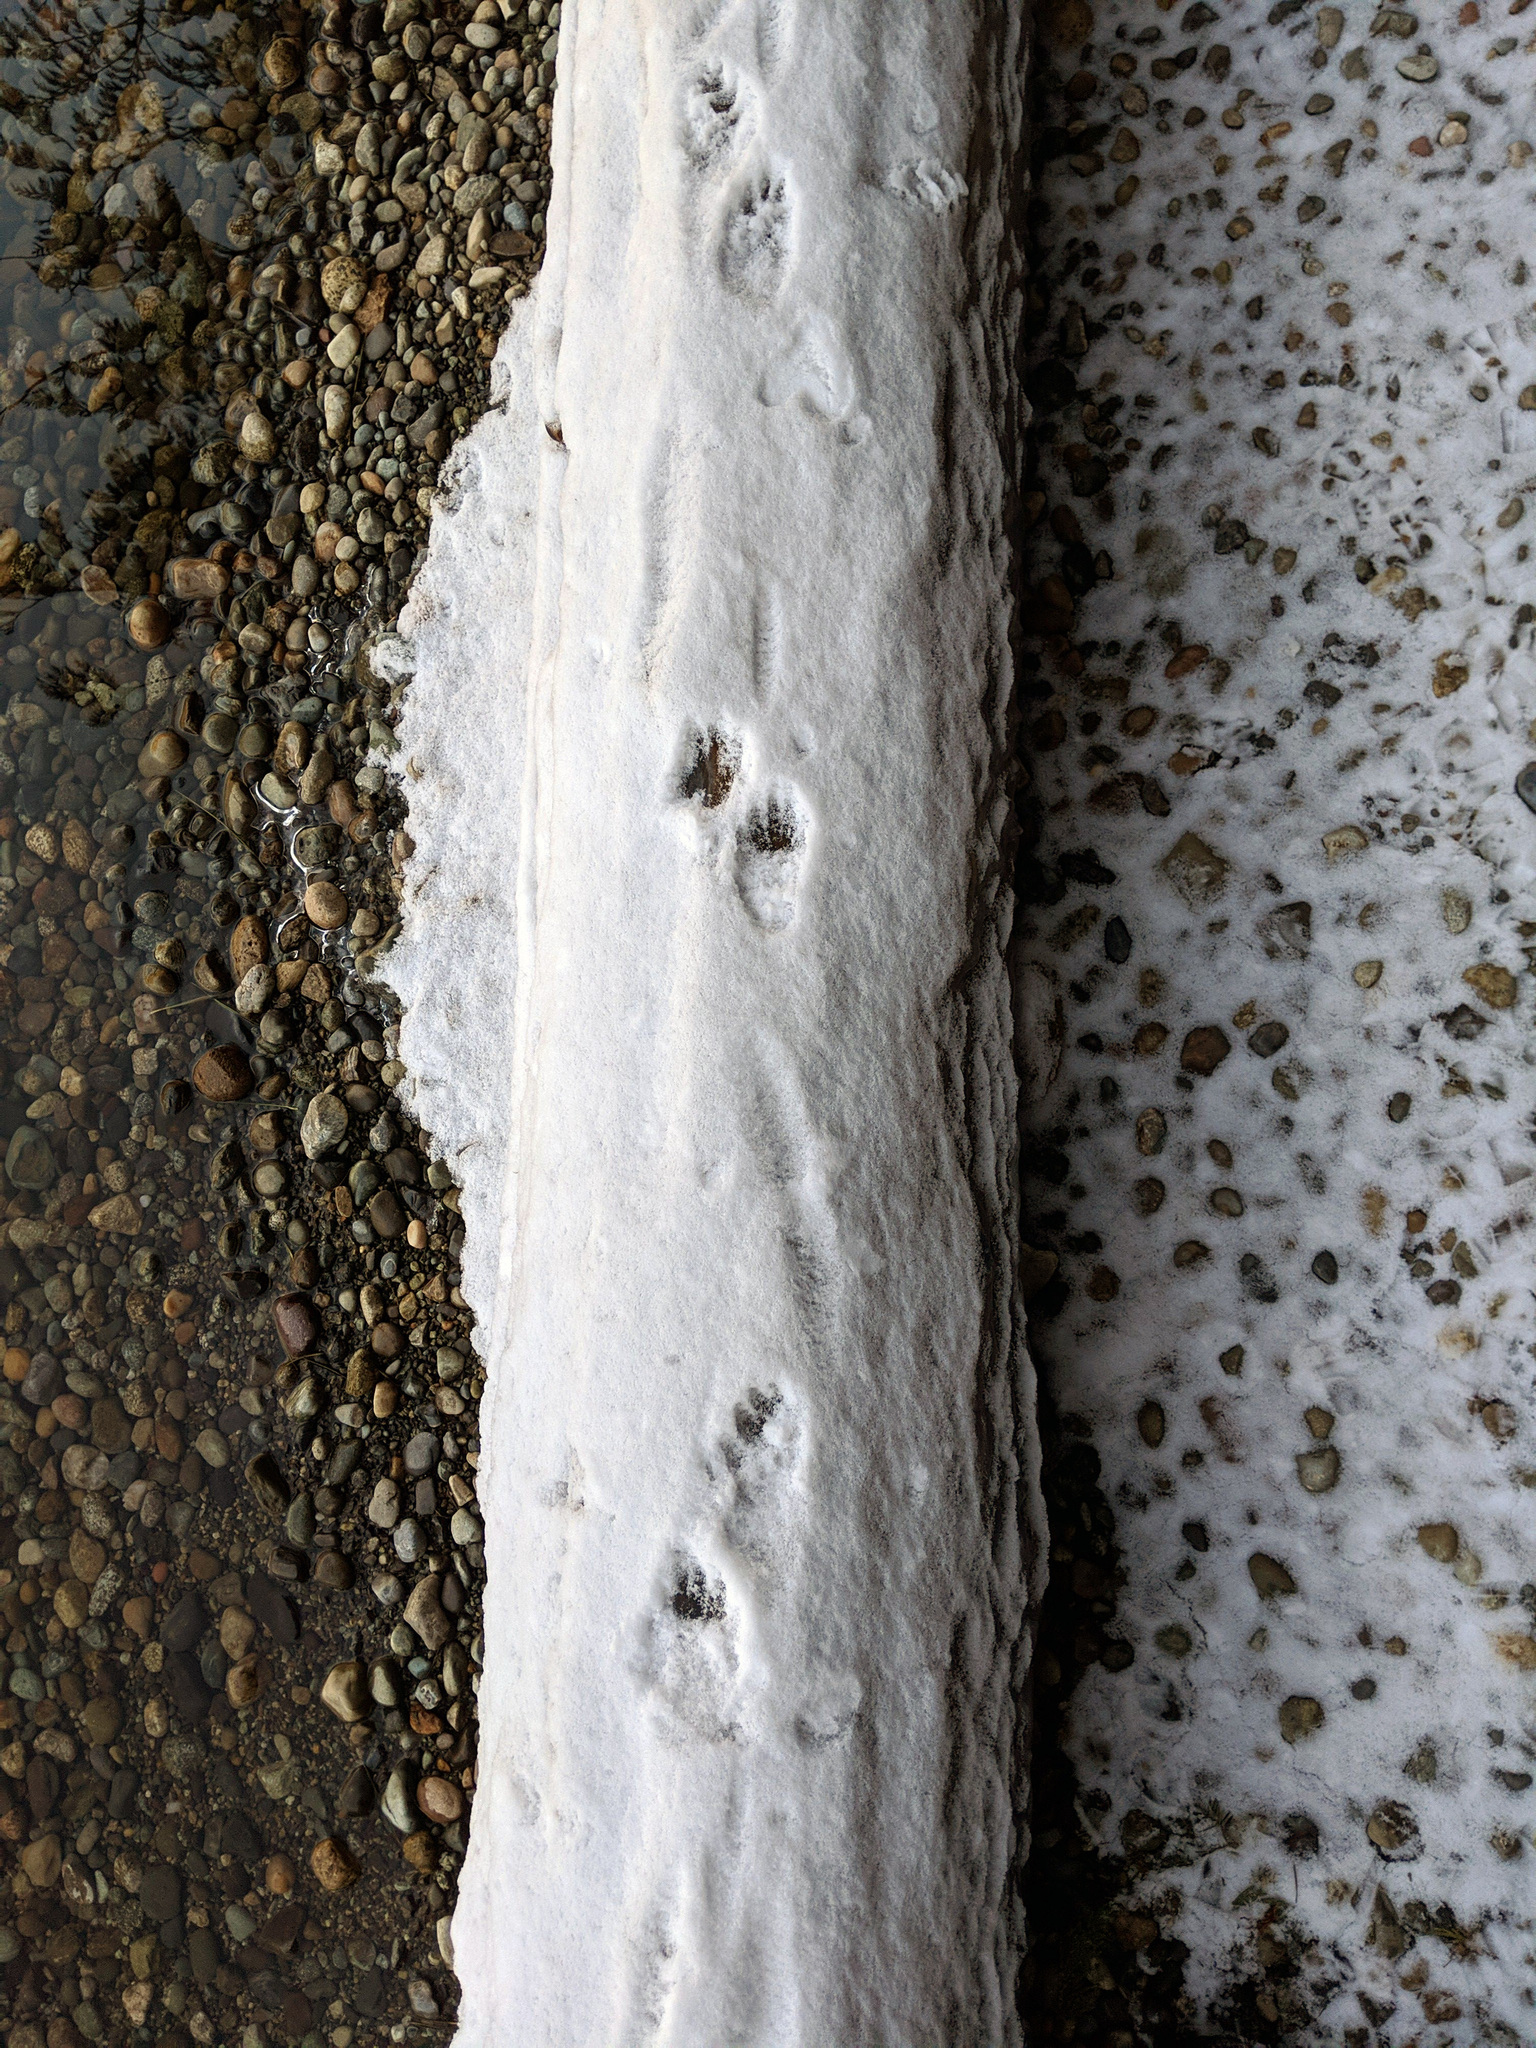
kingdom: Animalia
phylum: Chordata
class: Mammalia
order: Carnivora
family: Procyonidae
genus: Procyon
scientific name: Procyon lotor
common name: Raccoon
